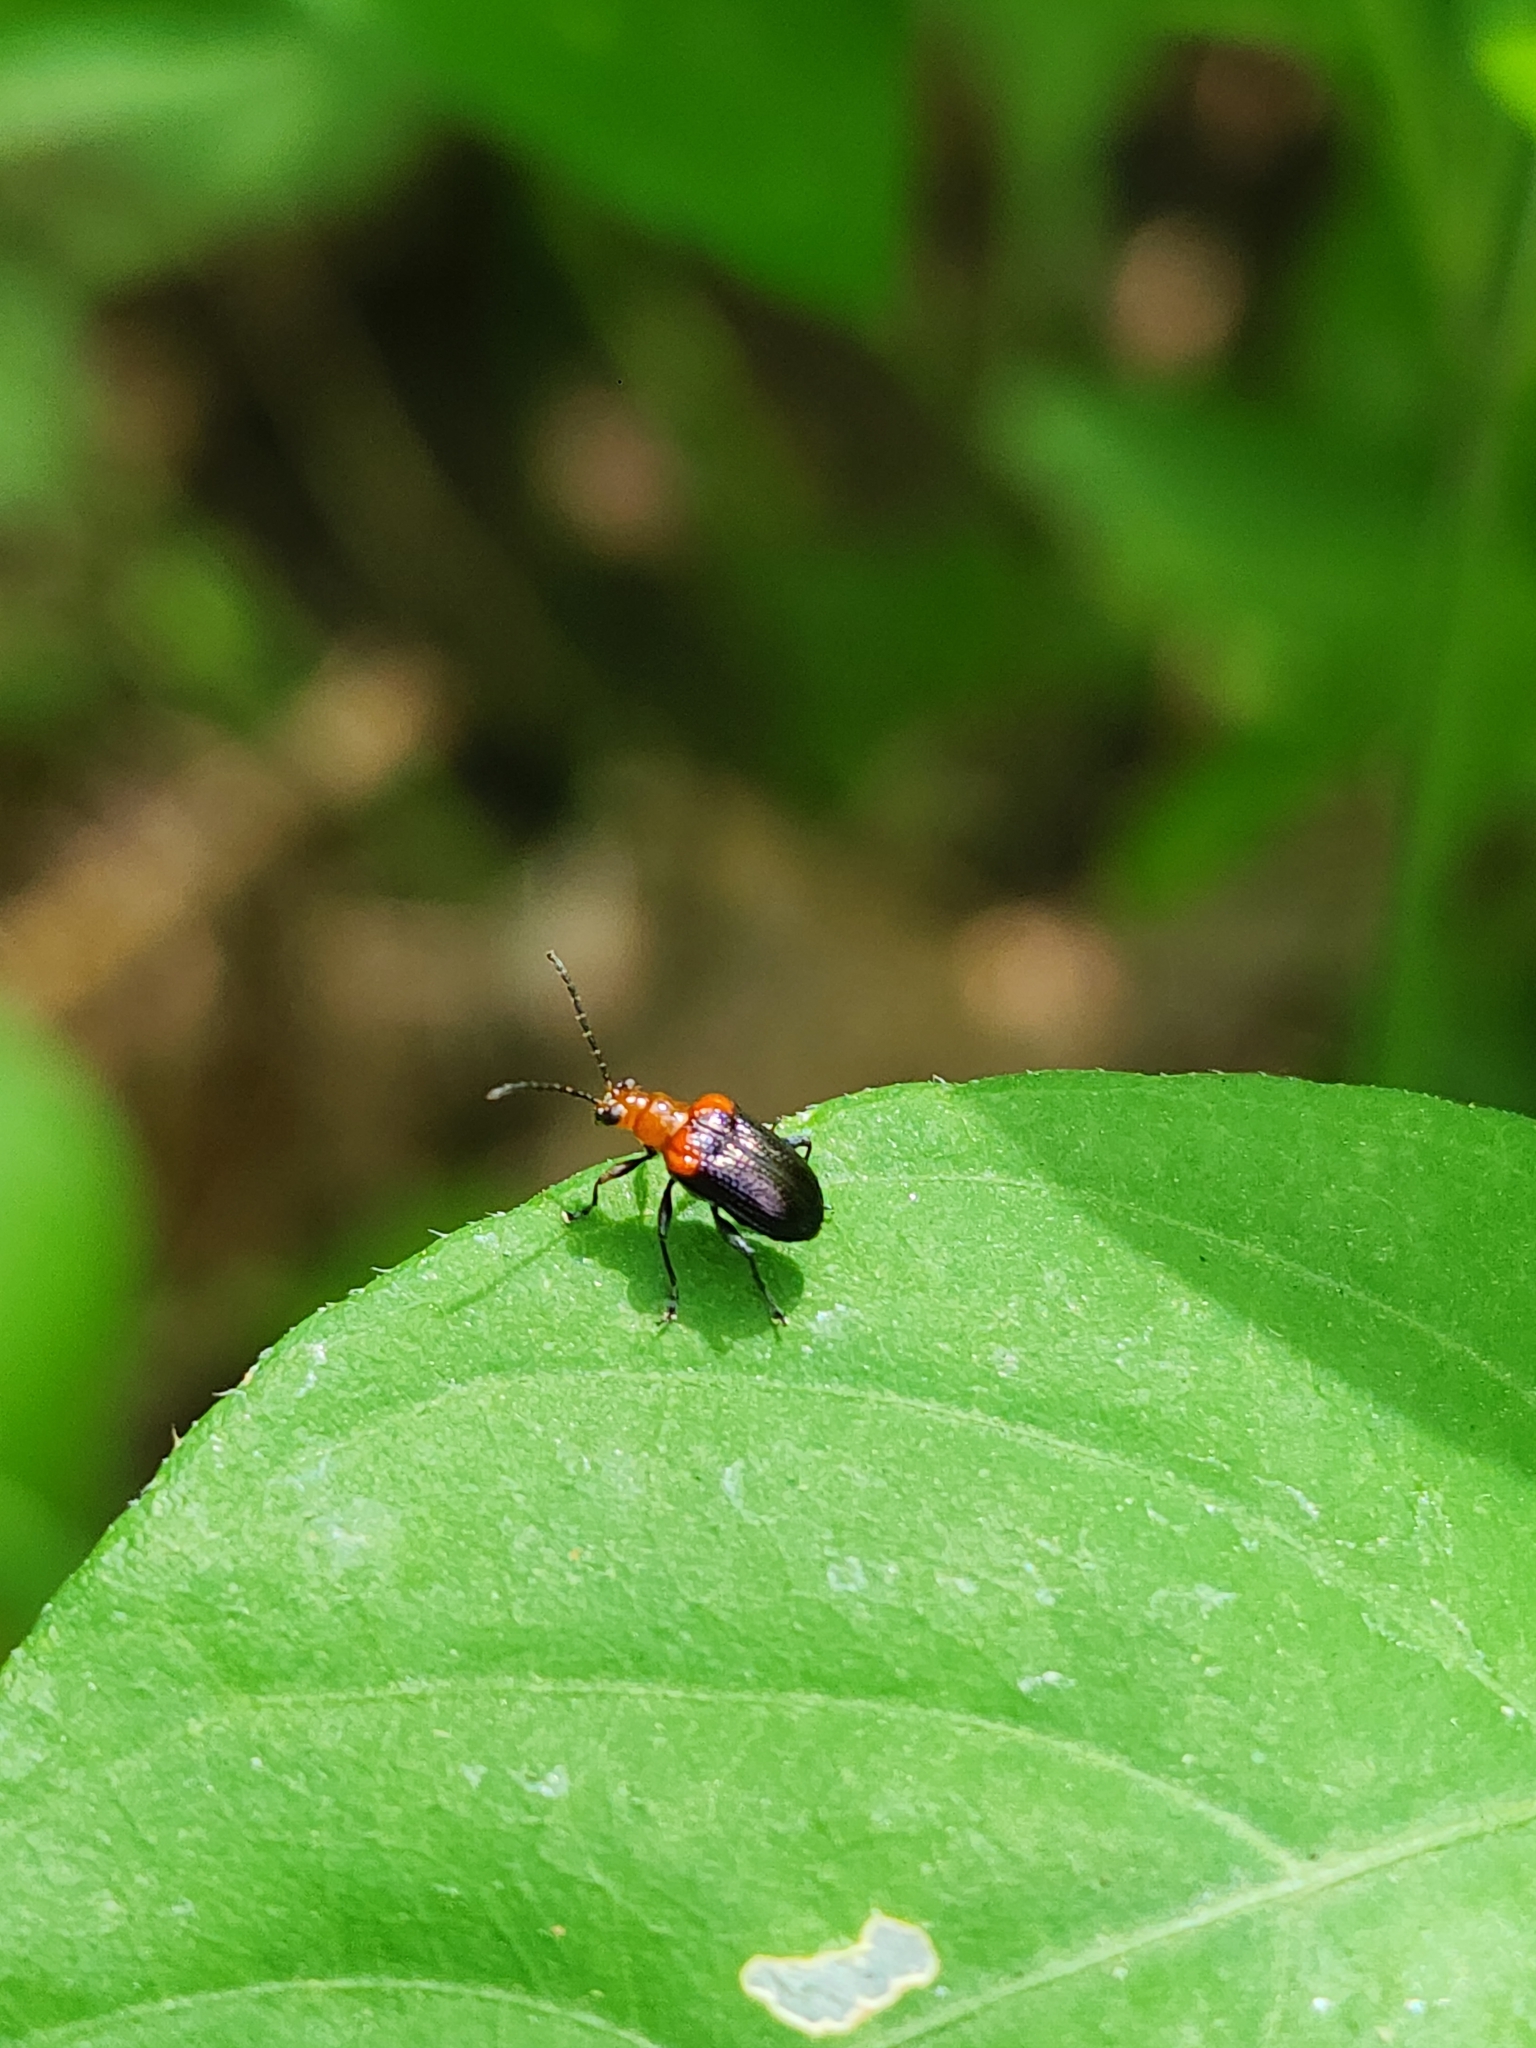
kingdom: Animalia
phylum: Arthropoda
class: Insecta
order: Coleoptera
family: Chrysomelidae
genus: Neolema
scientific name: Neolema
